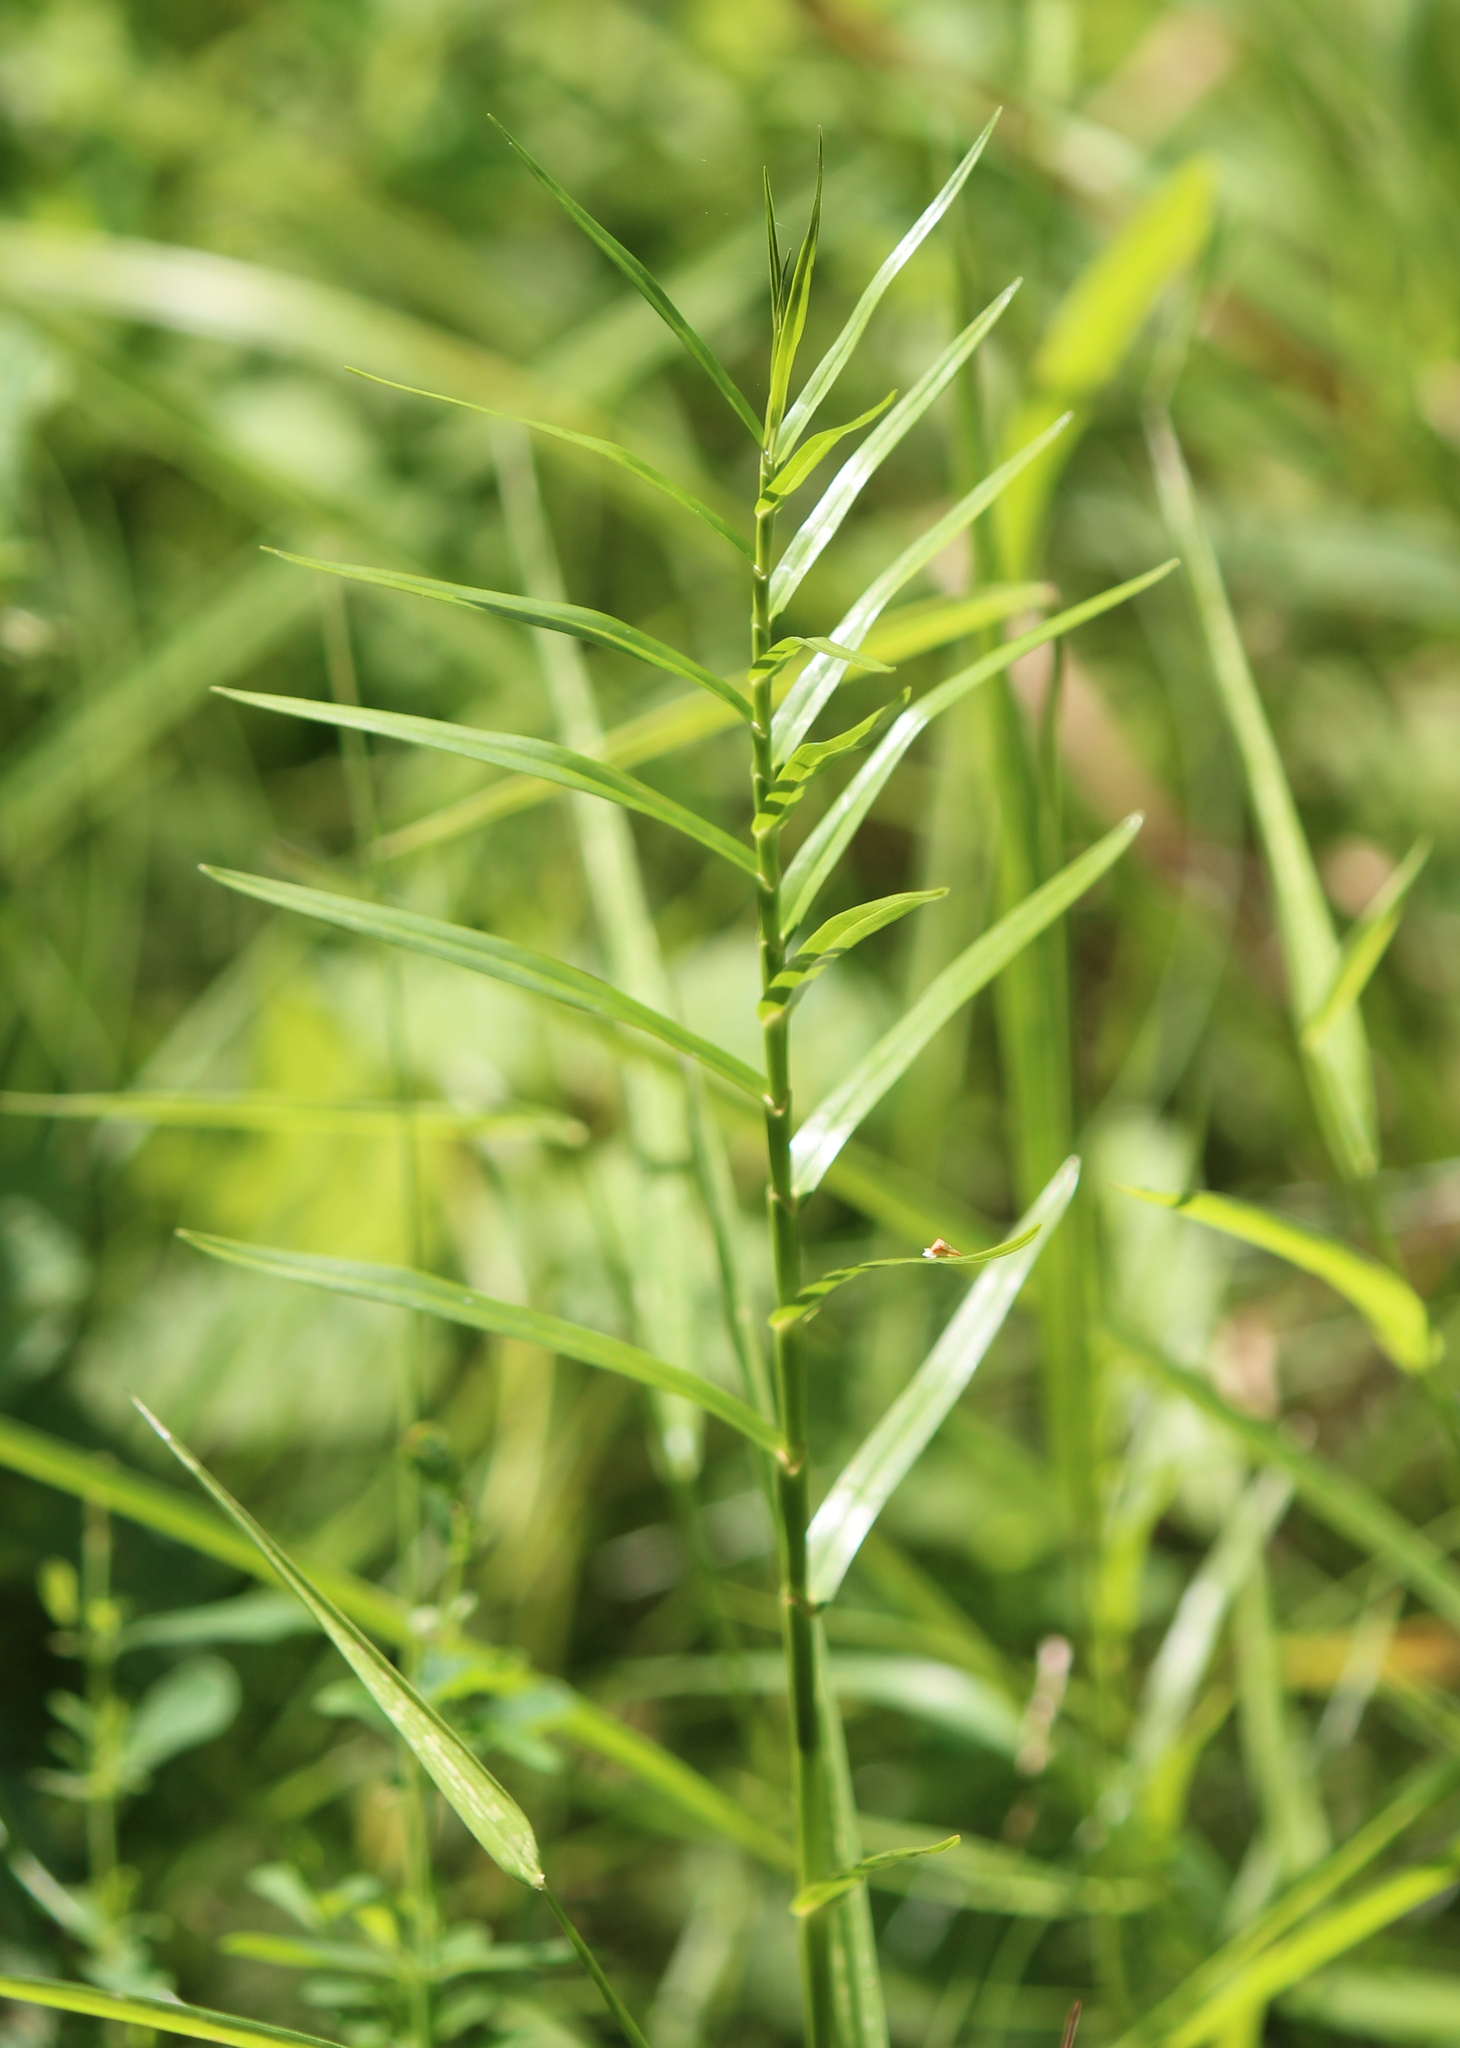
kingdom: Plantae
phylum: Tracheophyta
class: Liliopsida
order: Poales
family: Cyperaceae
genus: Dulichium
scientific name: Dulichium arundinaceum
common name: Three-way sedge
